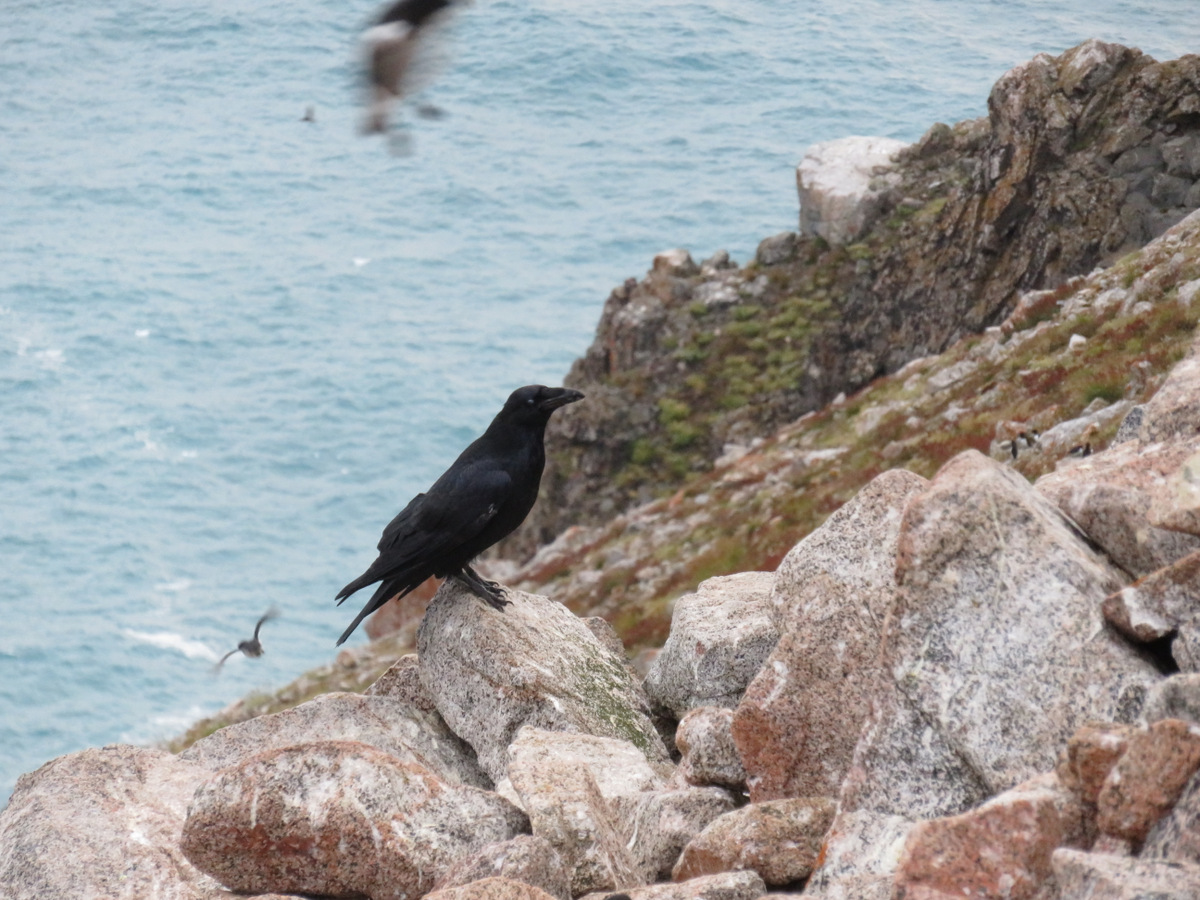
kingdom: Animalia
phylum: Chordata
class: Aves
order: Passeriformes
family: Corvidae
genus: Corvus
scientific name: Corvus corax
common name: Common raven
